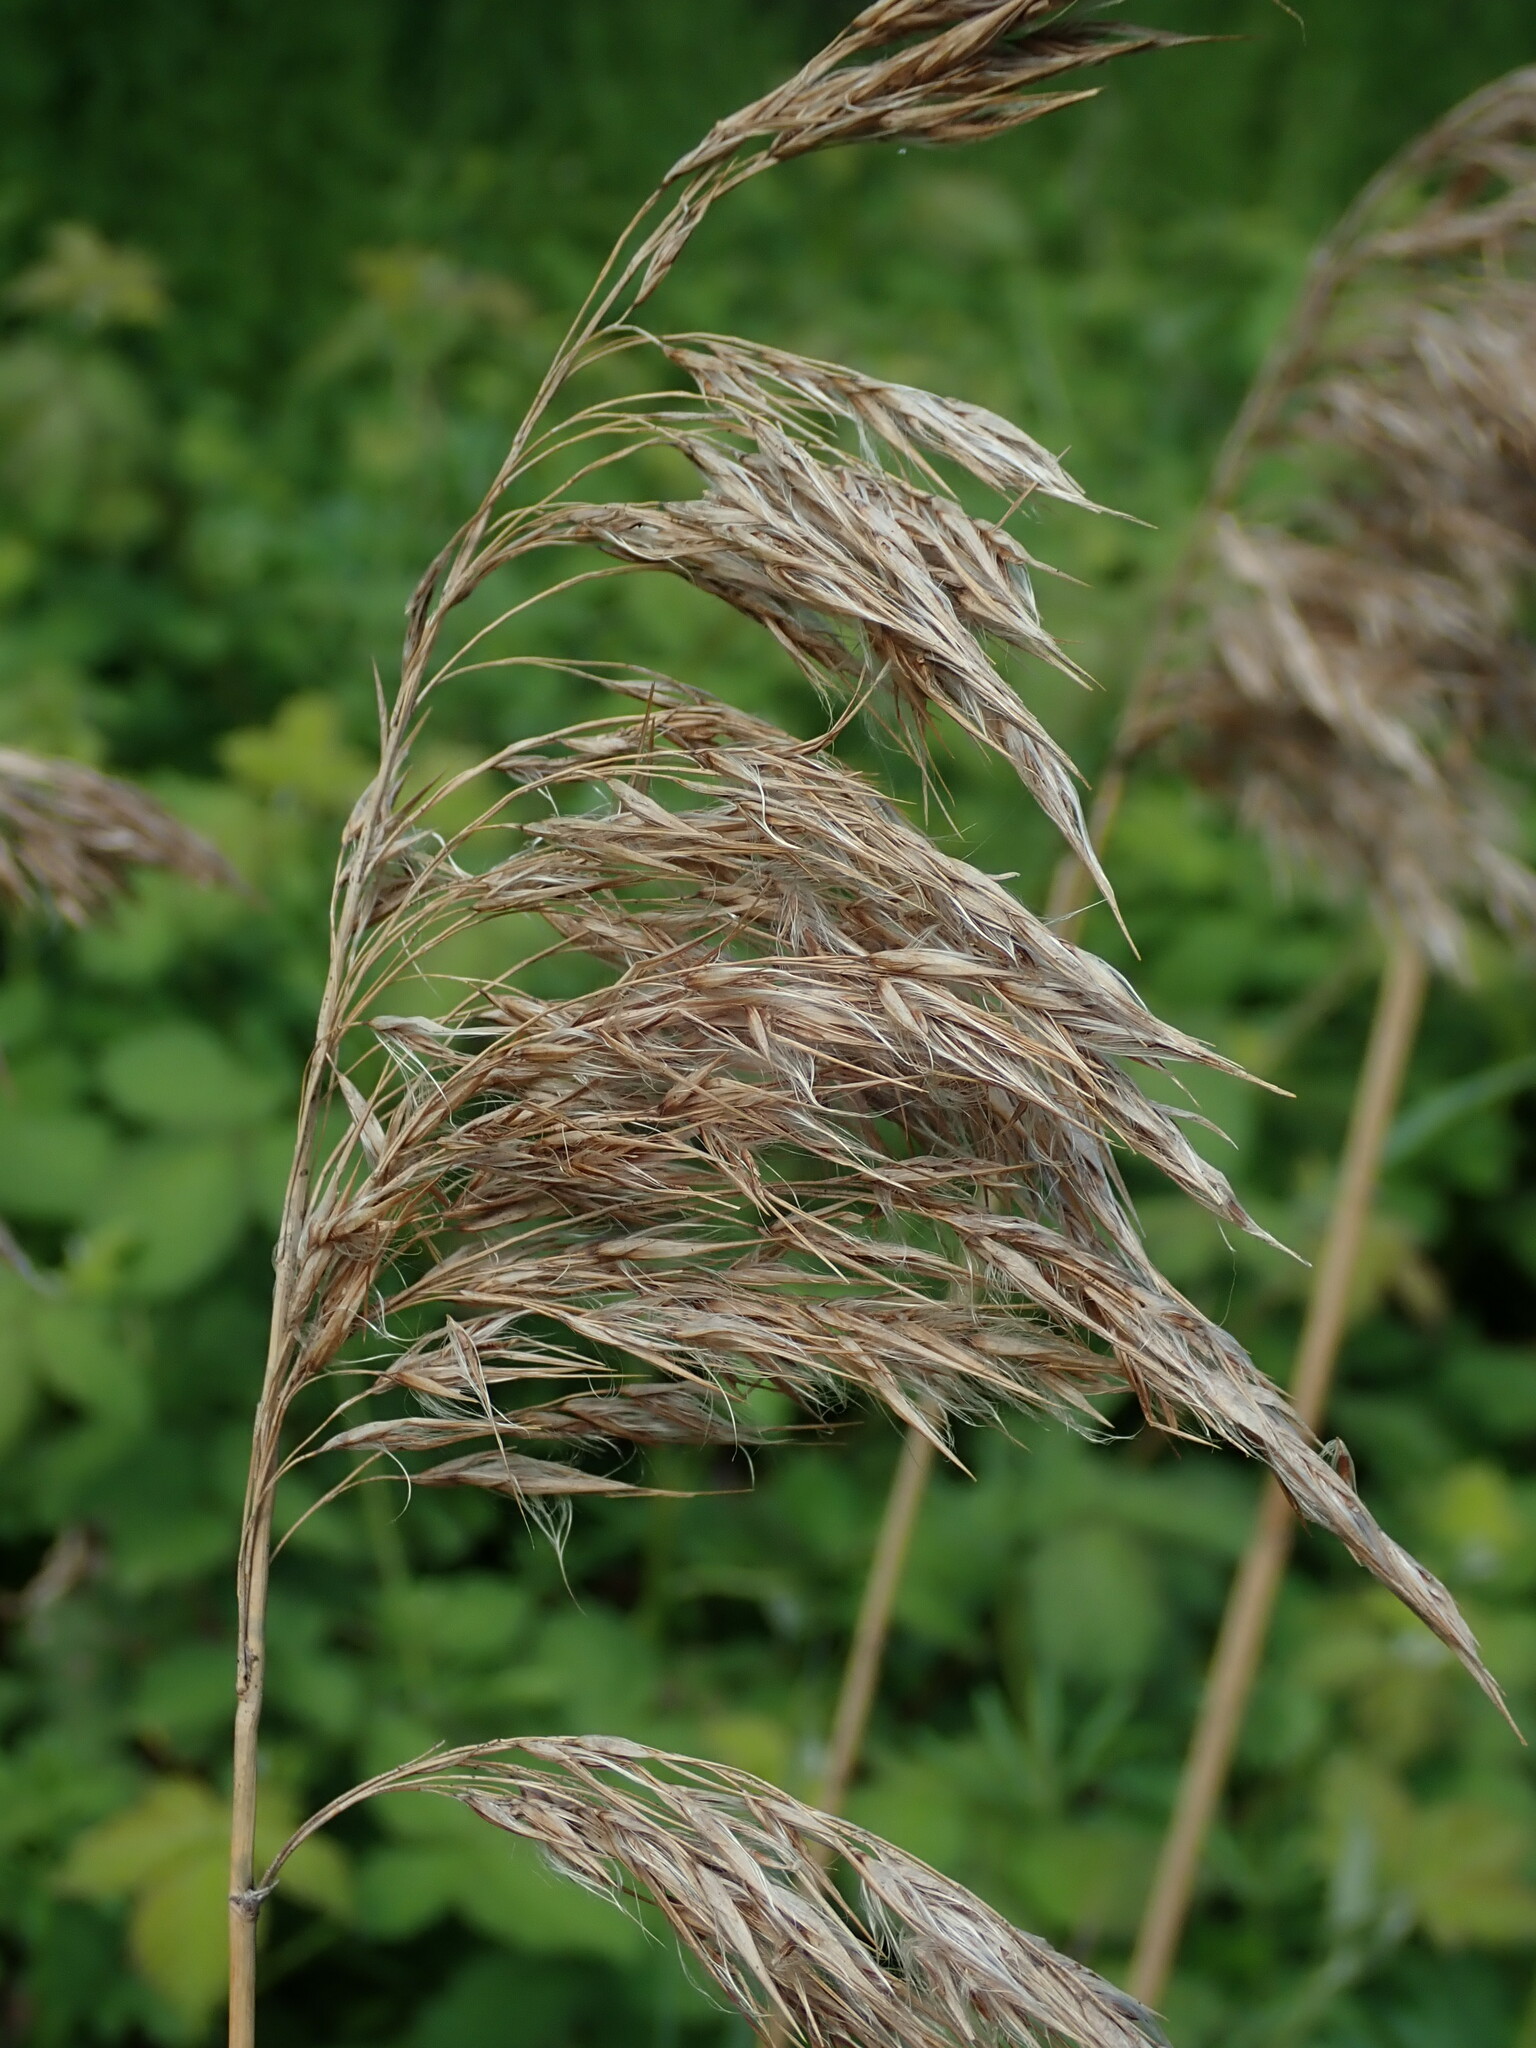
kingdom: Plantae
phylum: Tracheophyta
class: Liliopsida
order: Poales
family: Poaceae
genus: Phragmites
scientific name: Phragmites australis
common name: Common reed
